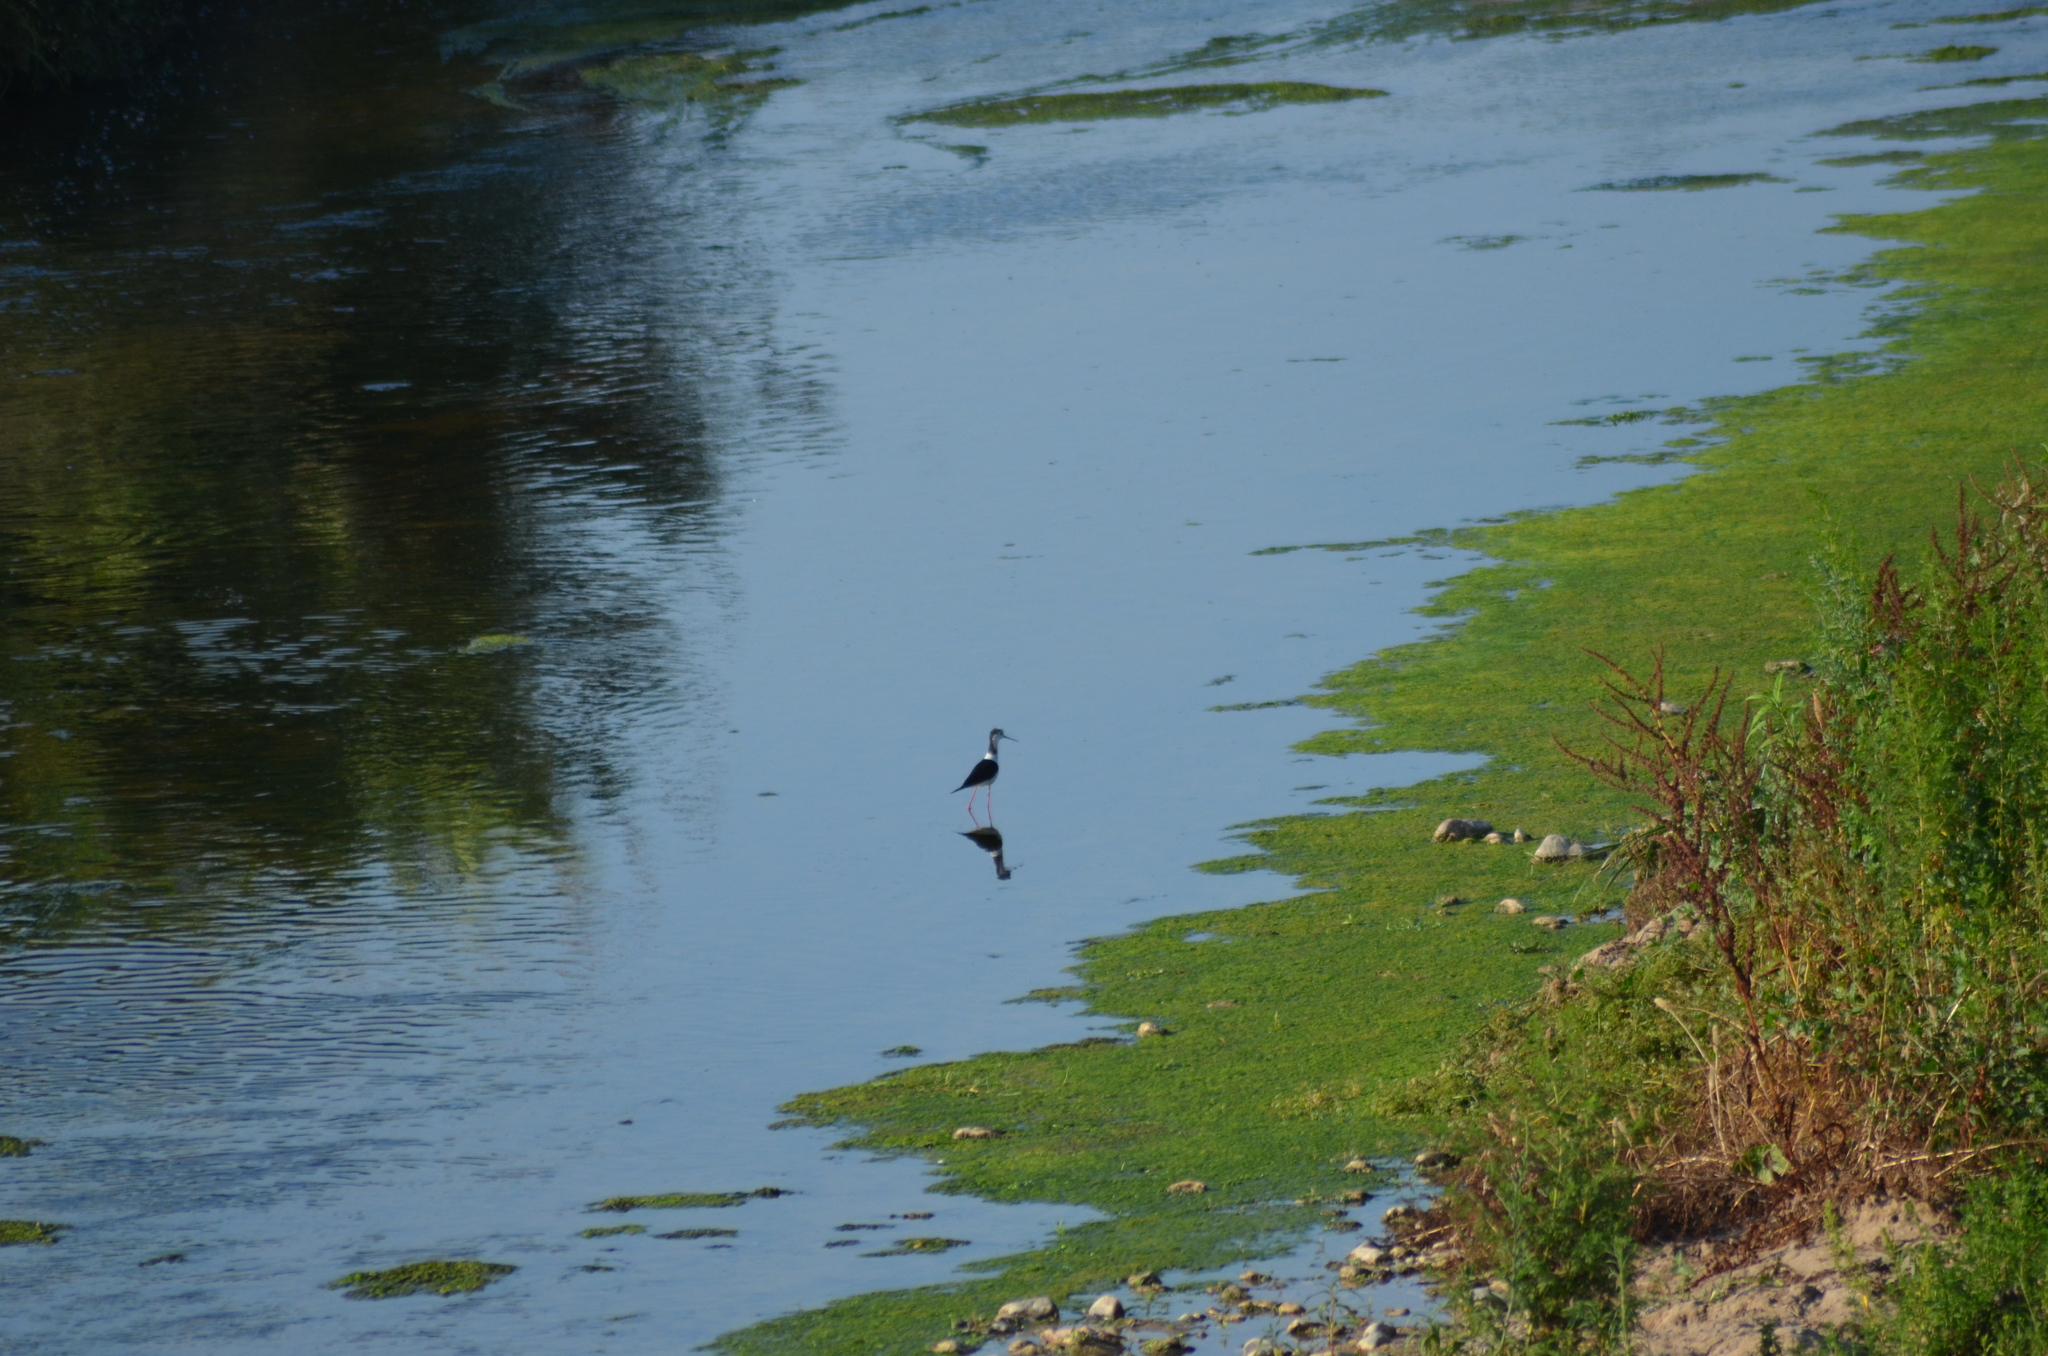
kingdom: Animalia
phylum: Chordata
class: Aves
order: Charadriiformes
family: Recurvirostridae
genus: Himantopus
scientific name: Himantopus himantopus
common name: Black-winged stilt
